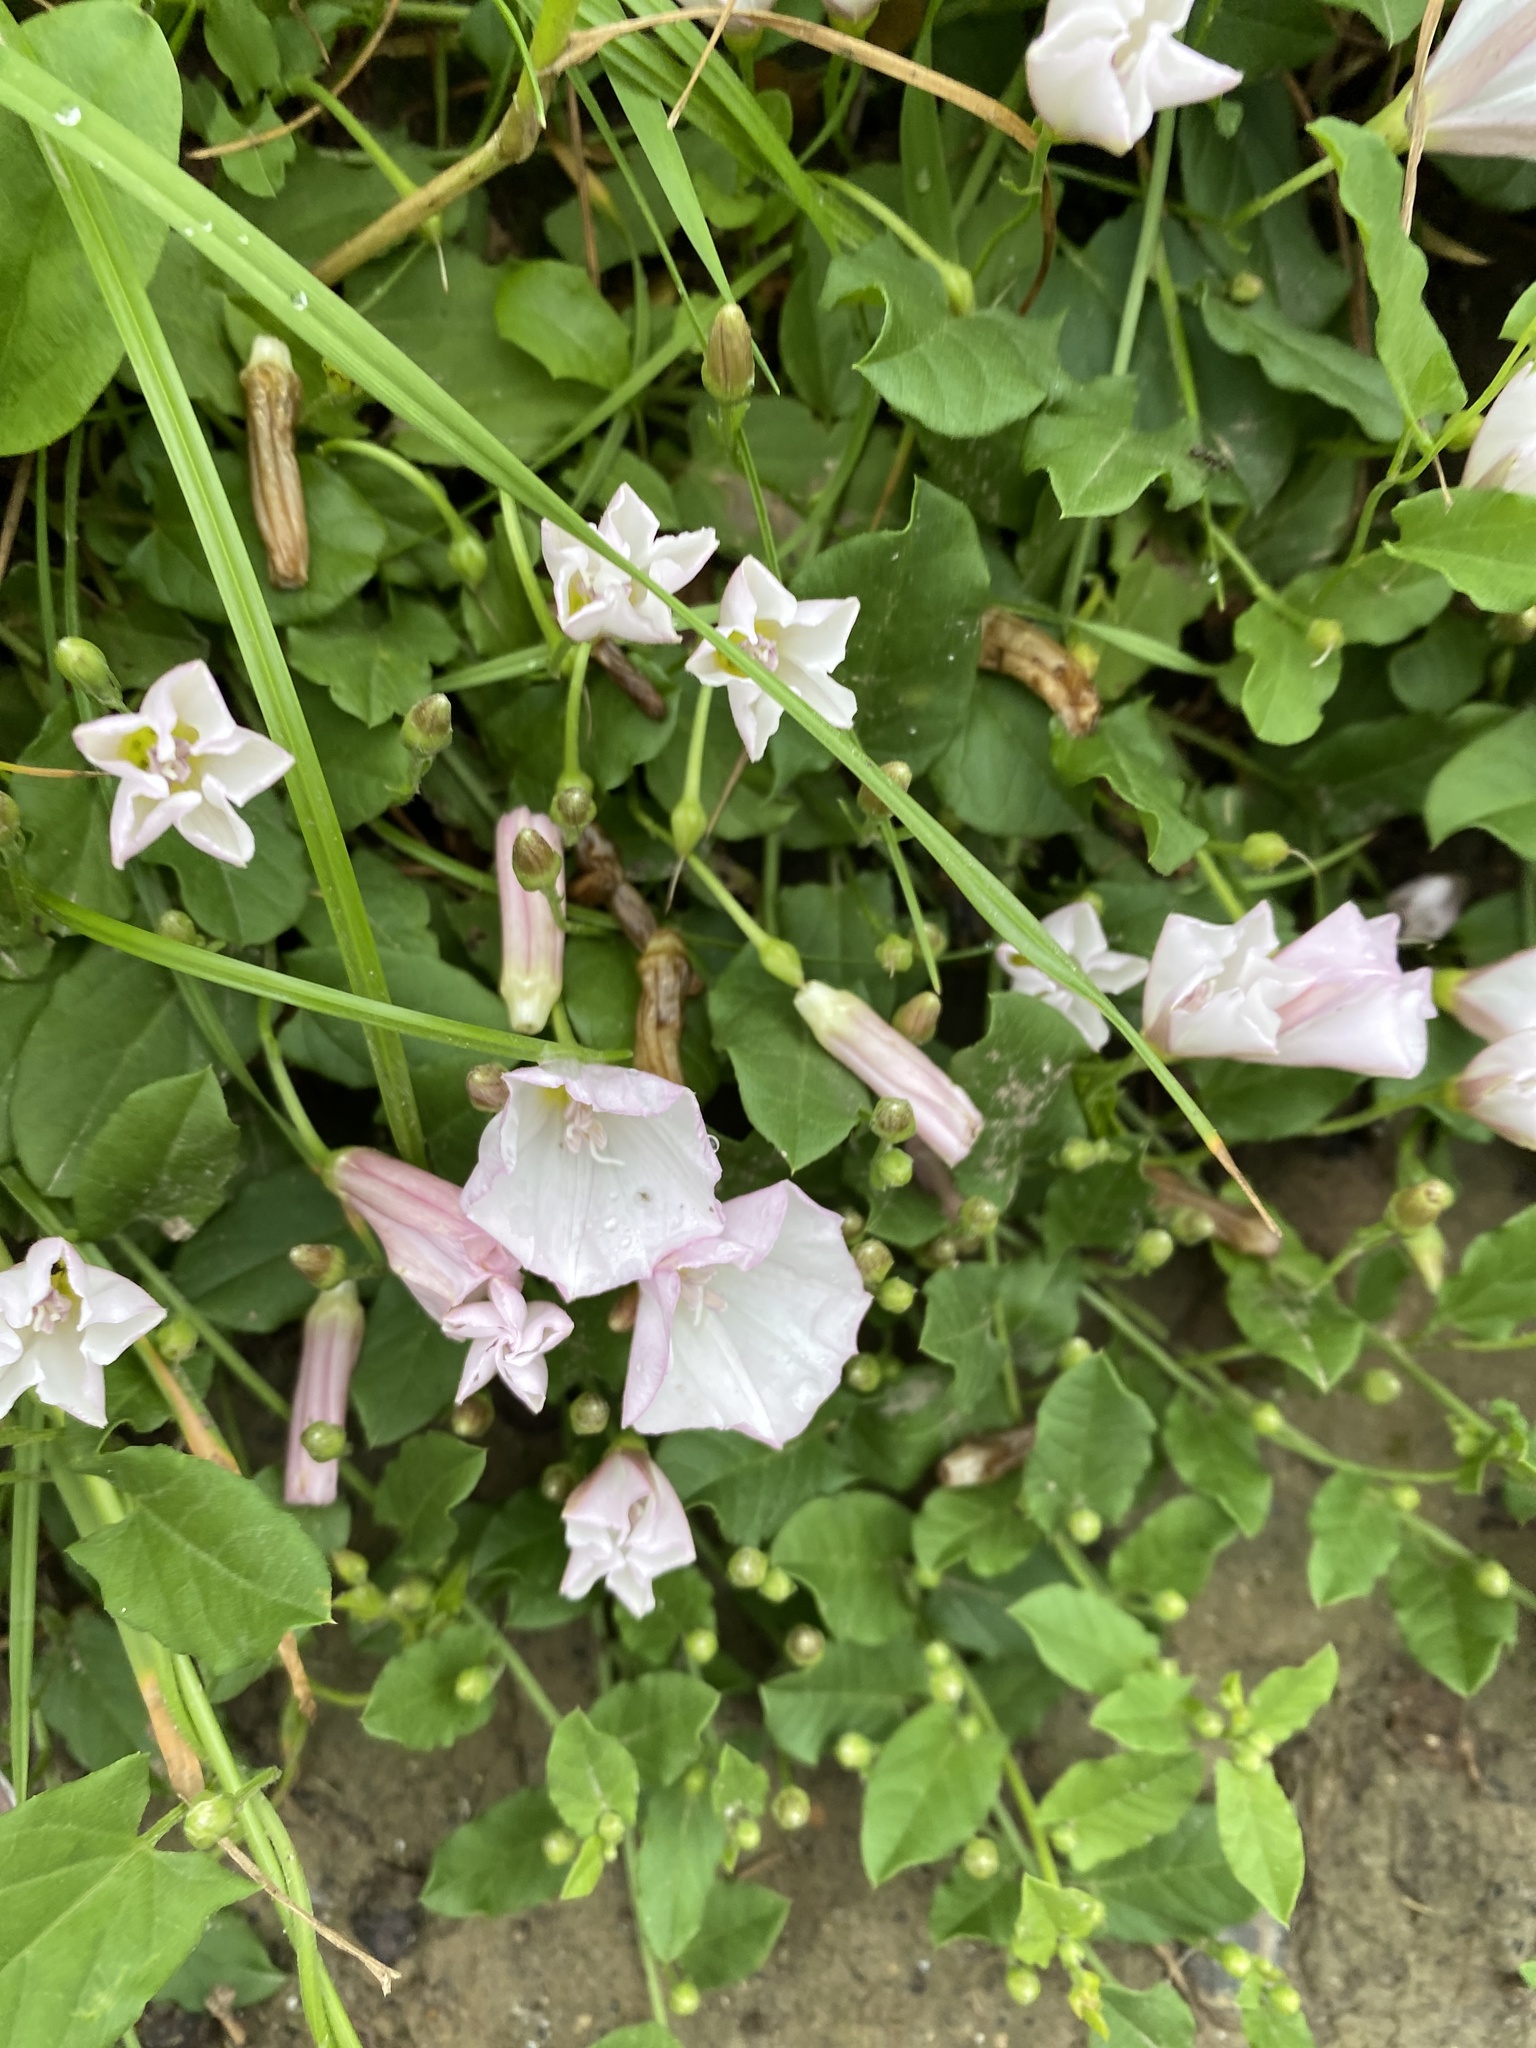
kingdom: Plantae
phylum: Tracheophyta
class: Magnoliopsida
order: Solanales
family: Convolvulaceae
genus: Convolvulus
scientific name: Convolvulus arvensis
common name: Field bindweed
